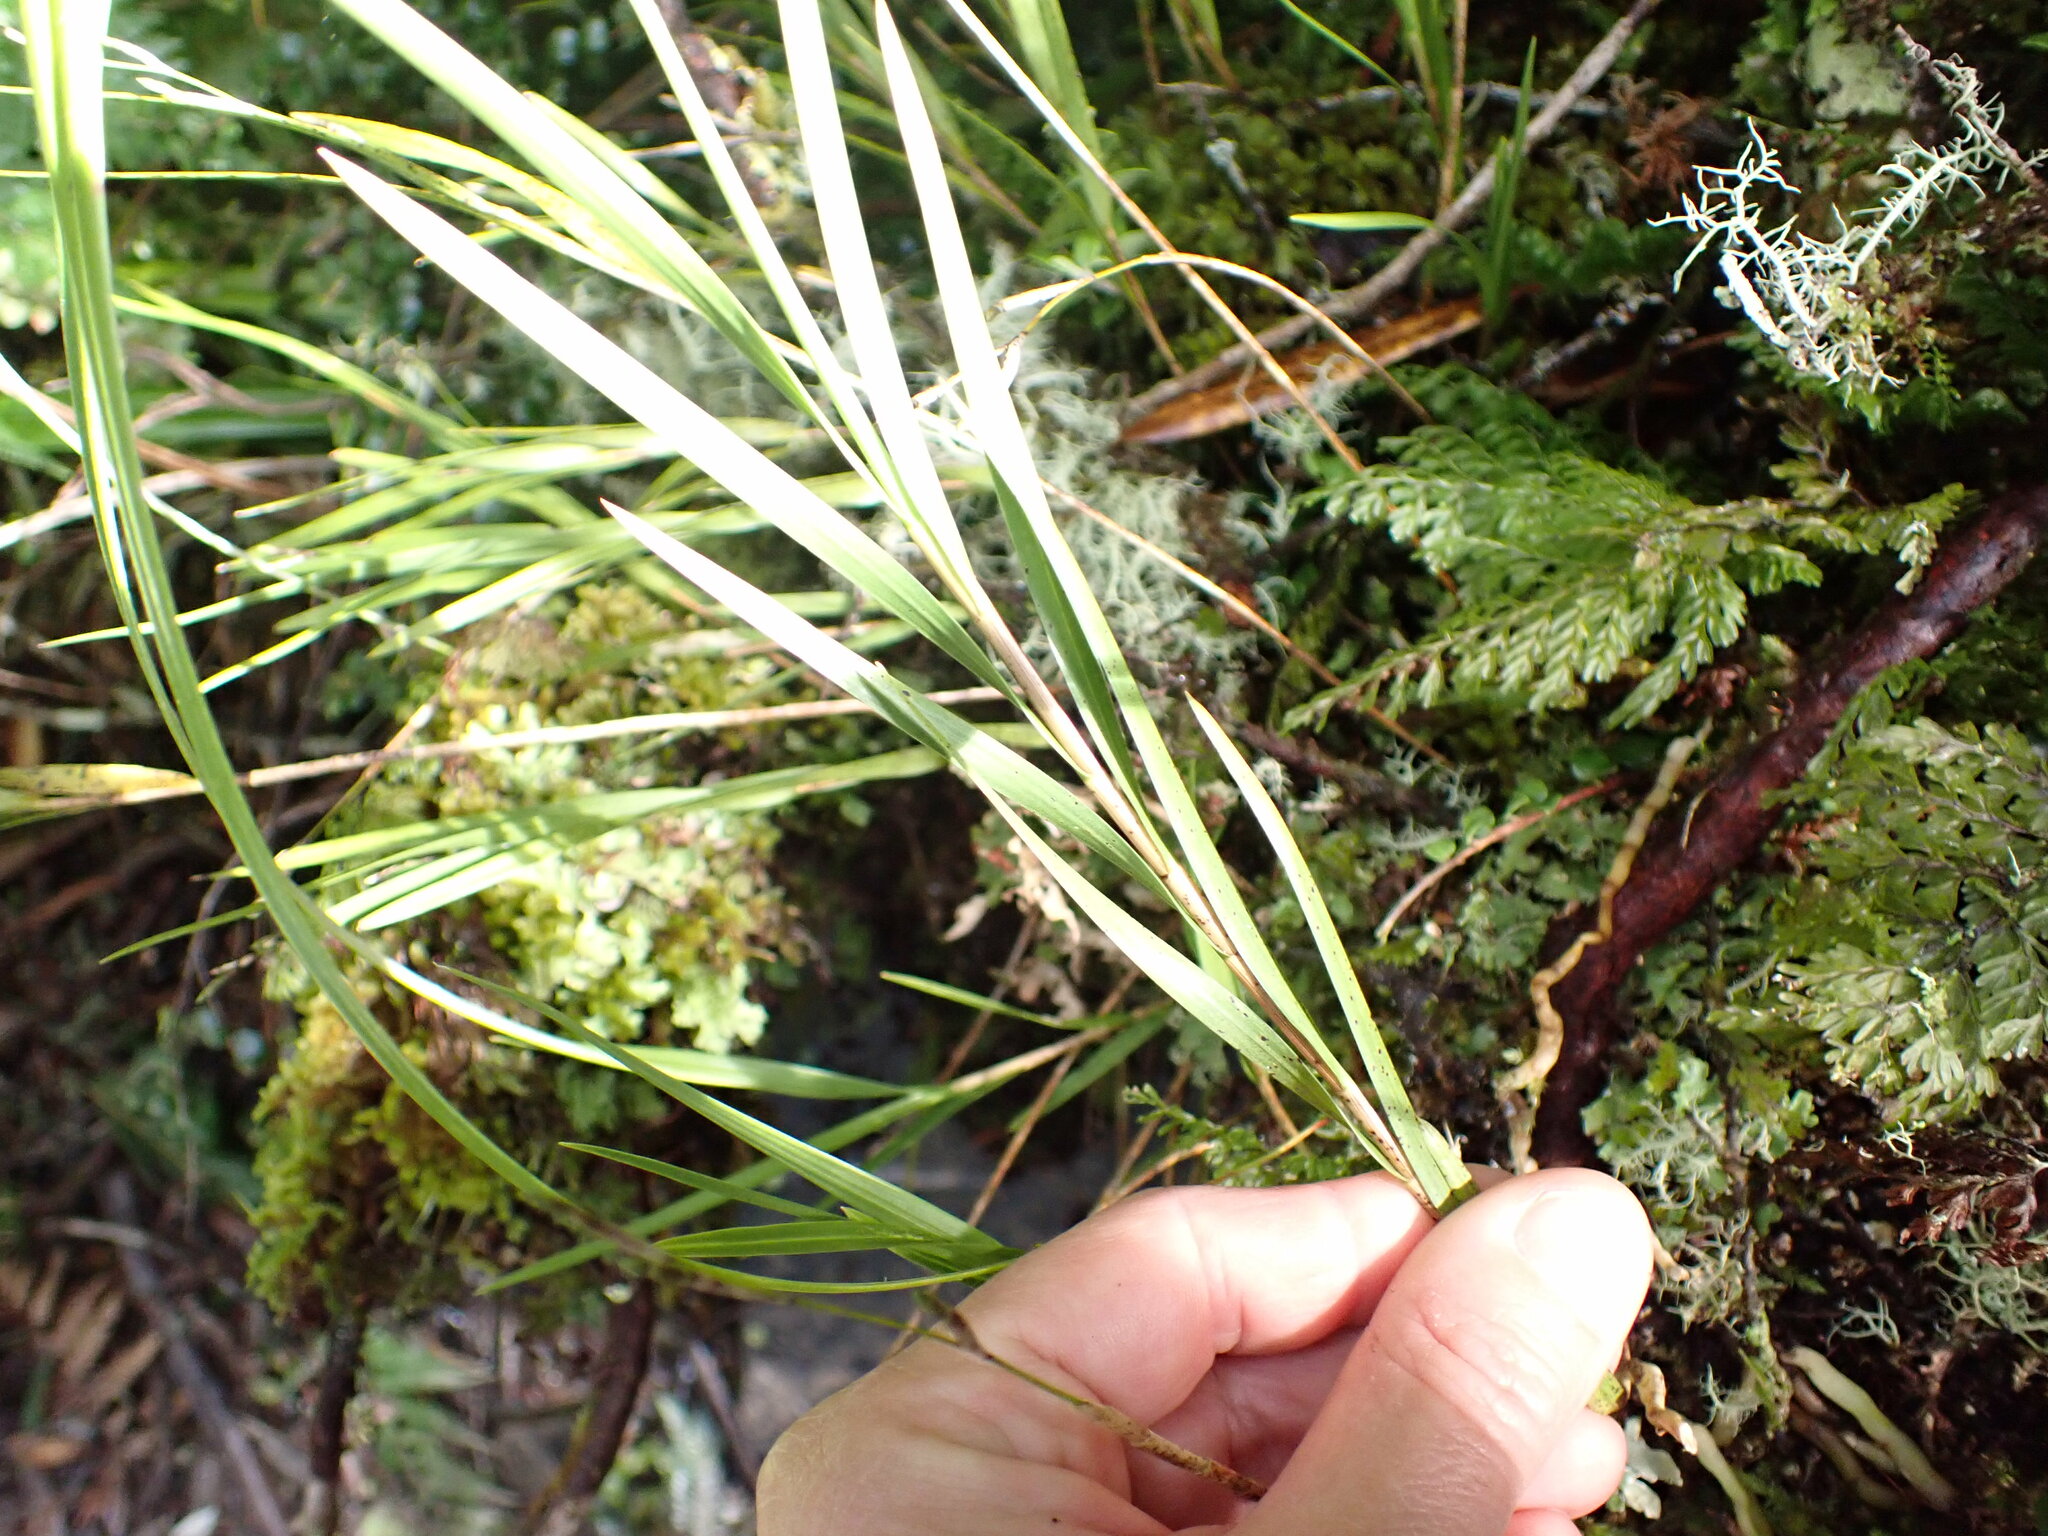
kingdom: Plantae
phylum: Tracheophyta
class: Liliopsida
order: Asparagales
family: Orchidaceae
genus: Earina
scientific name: Earina mucronata
